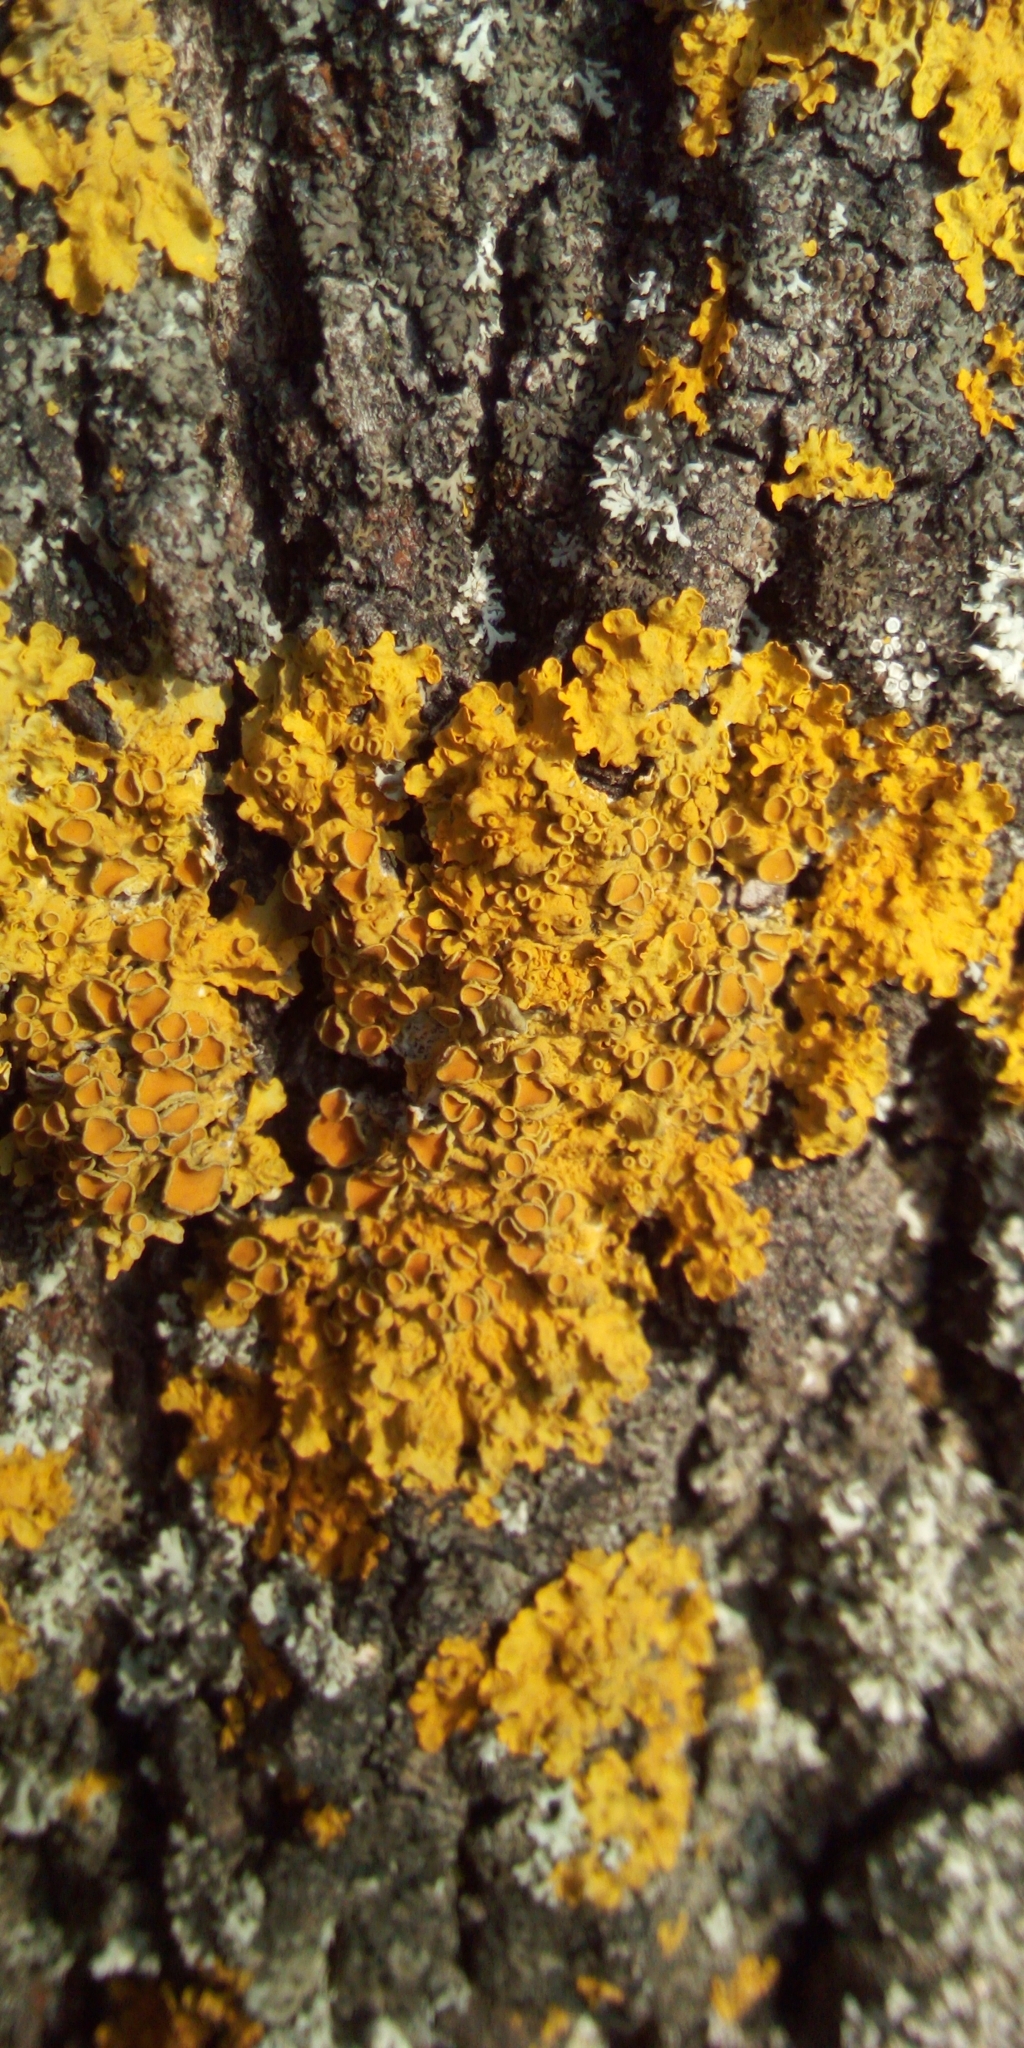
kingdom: Fungi
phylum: Ascomycota
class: Lecanoromycetes
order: Teloschistales
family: Teloschistaceae
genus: Xanthoria
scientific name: Xanthoria parietina
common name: Common orange lichen
